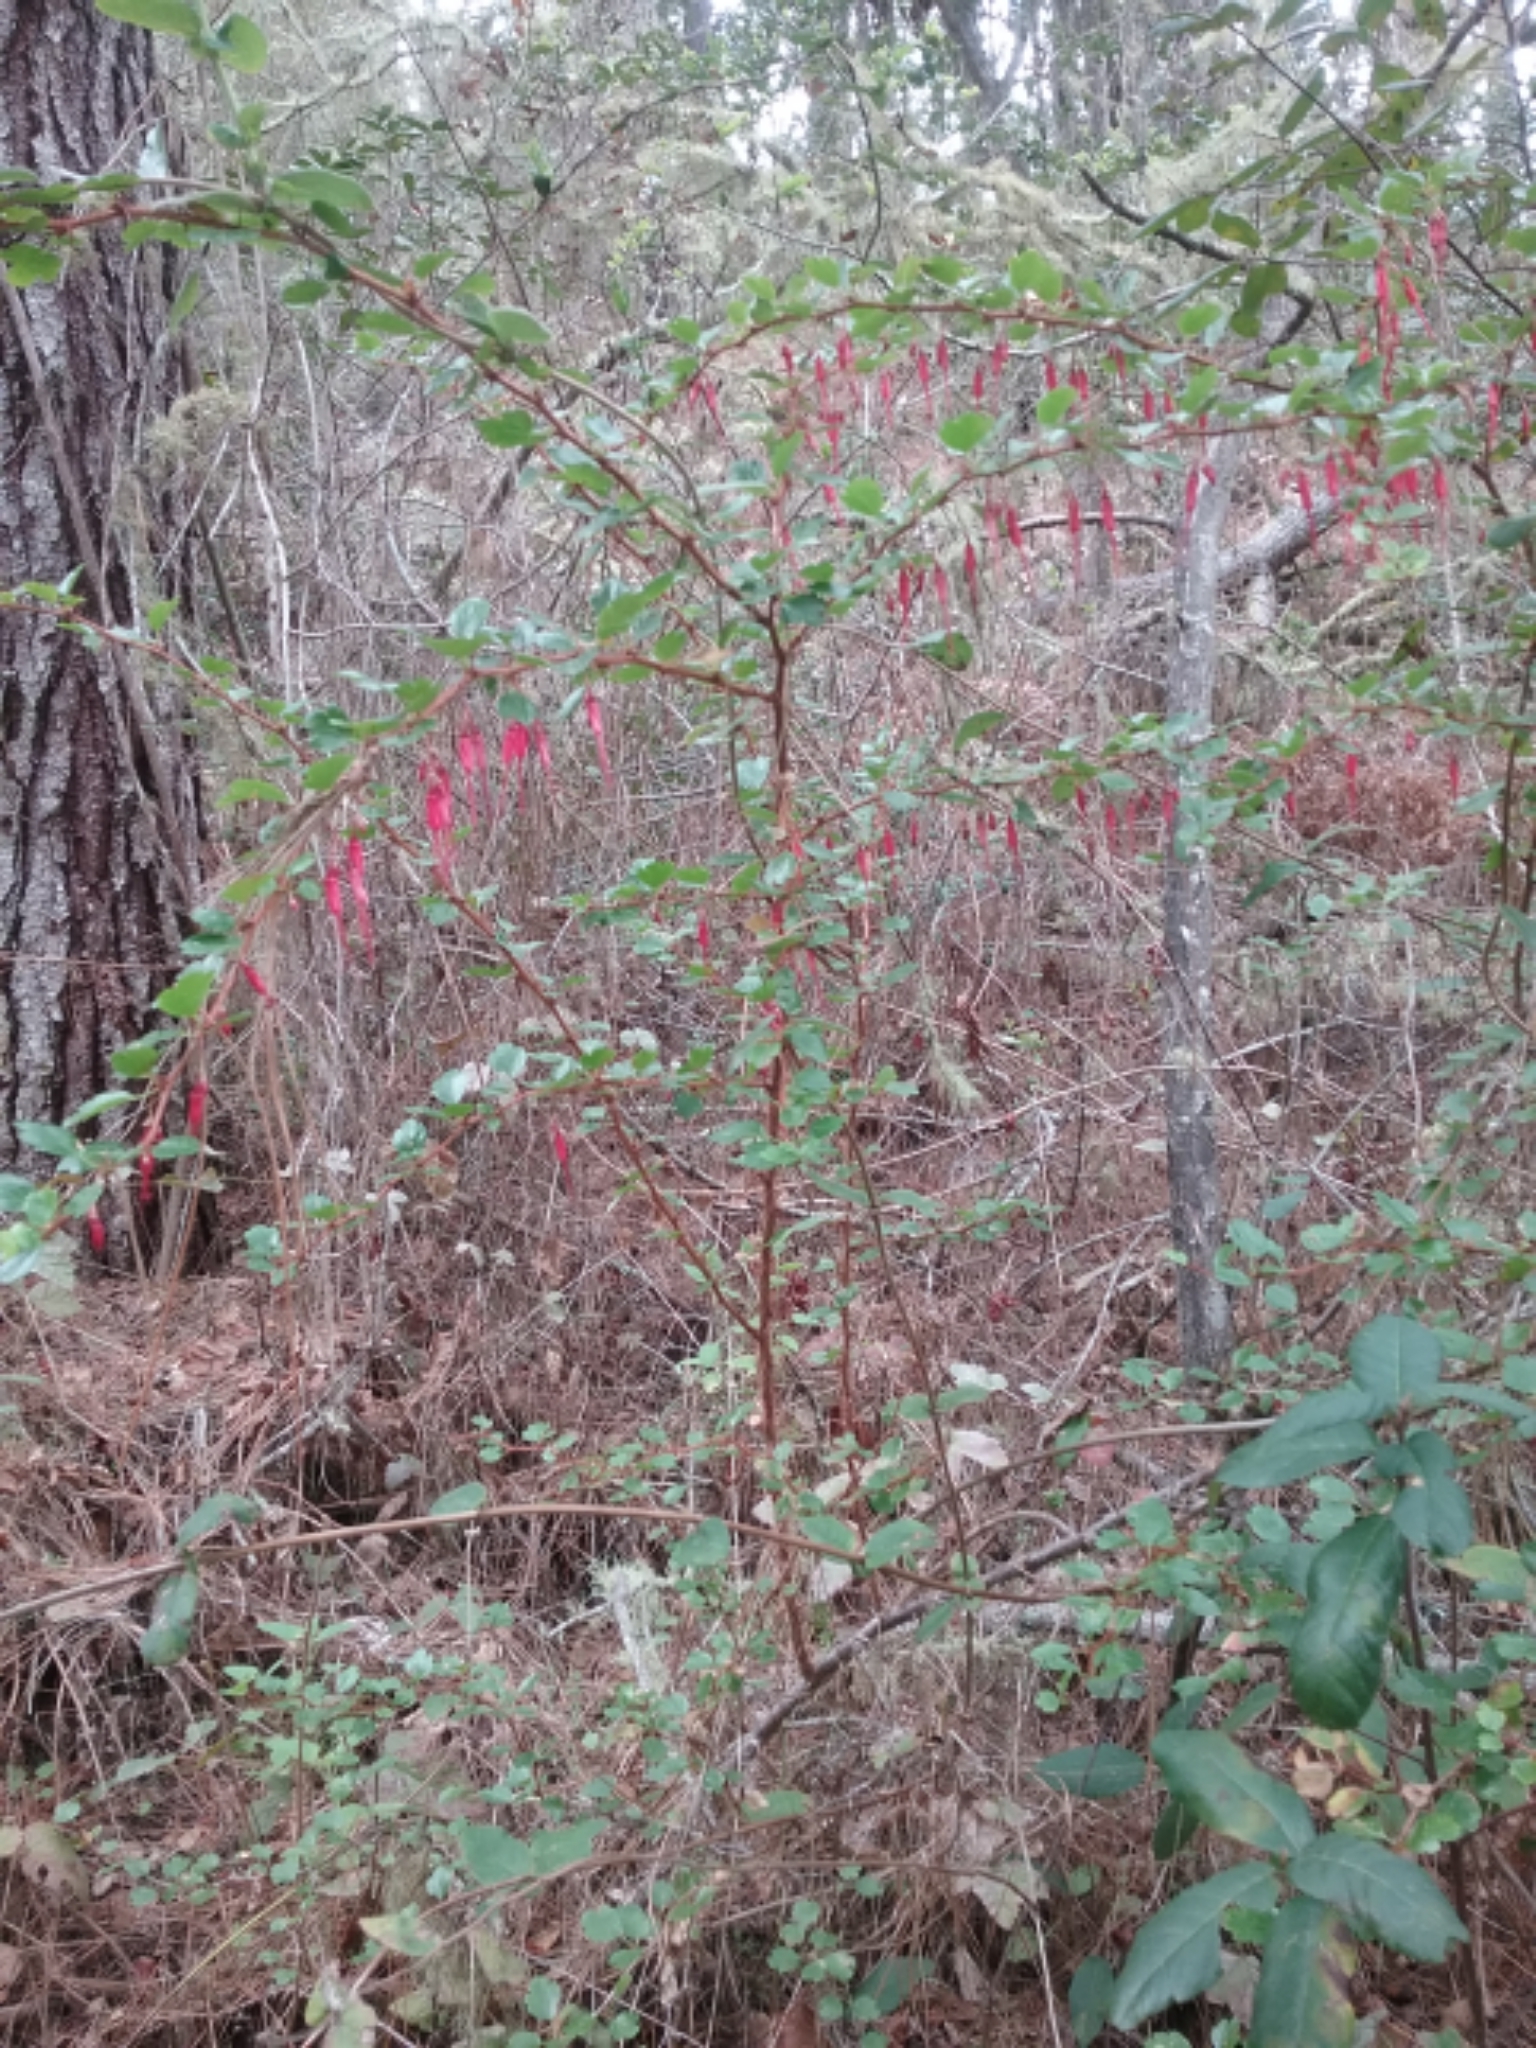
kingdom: Plantae
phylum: Tracheophyta
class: Magnoliopsida
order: Saxifragales
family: Grossulariaceae
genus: Ribes
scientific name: Ribes speciosum
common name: Fuchsia-flower gooseberry
